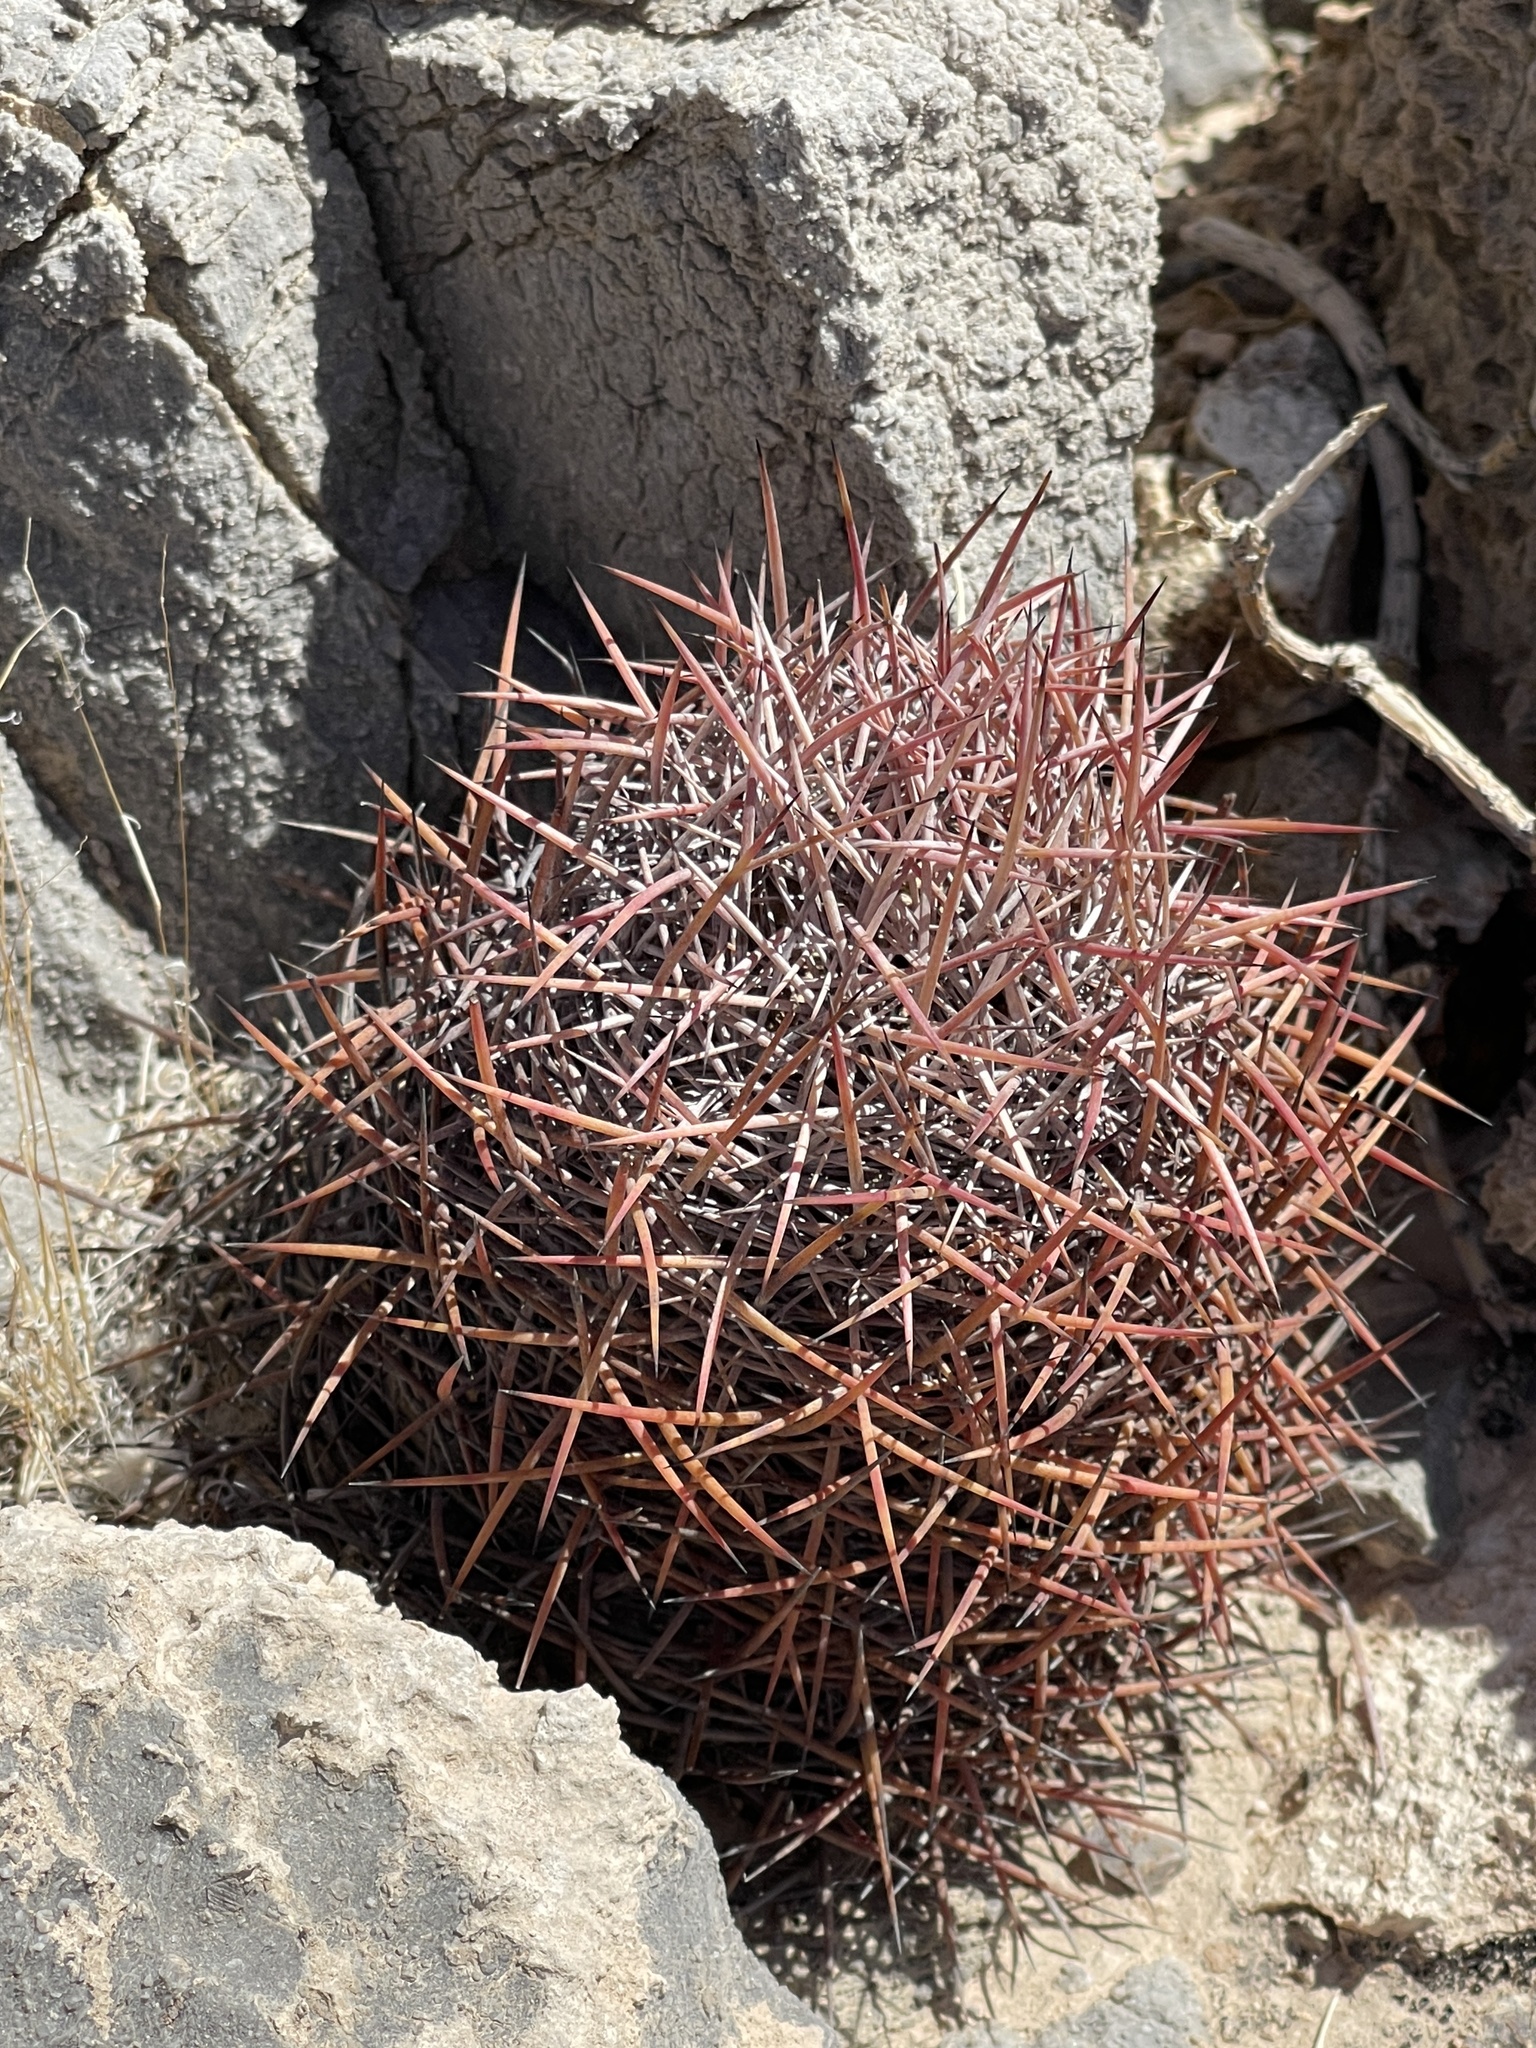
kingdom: Plantae
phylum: Tracheophyta
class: Magnoliopsida
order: Caryophyllales
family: Cactaceae
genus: Ferocactus
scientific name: Ferocactus cylindraceus
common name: California barrel cactus
